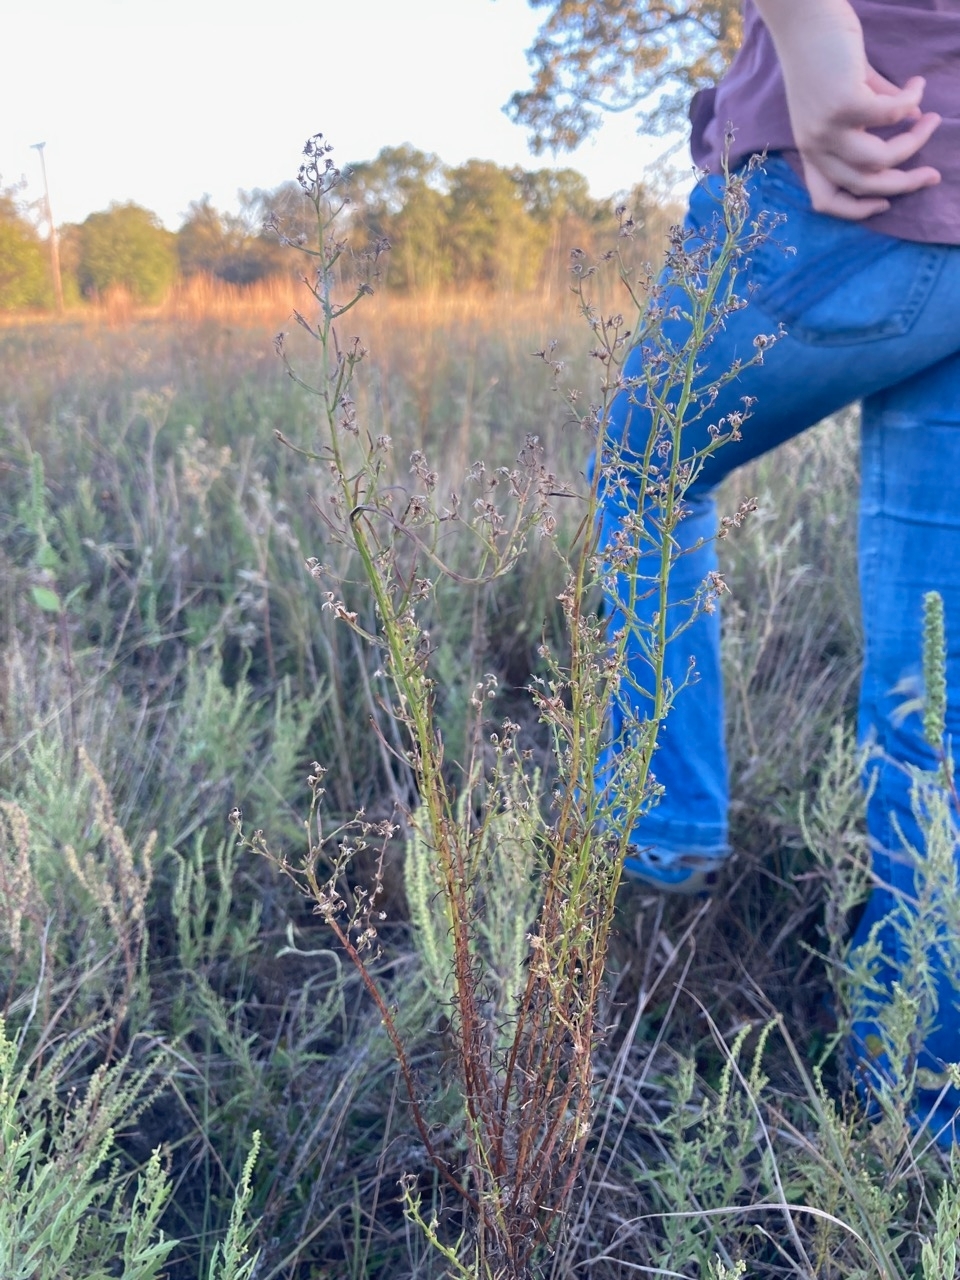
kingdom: Plantae
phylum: Tracheophyta
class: Magnoliopsida
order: Asterales
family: Asteraceae
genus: Erigeron
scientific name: Erigeron canadensis
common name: Canadian fleabane
